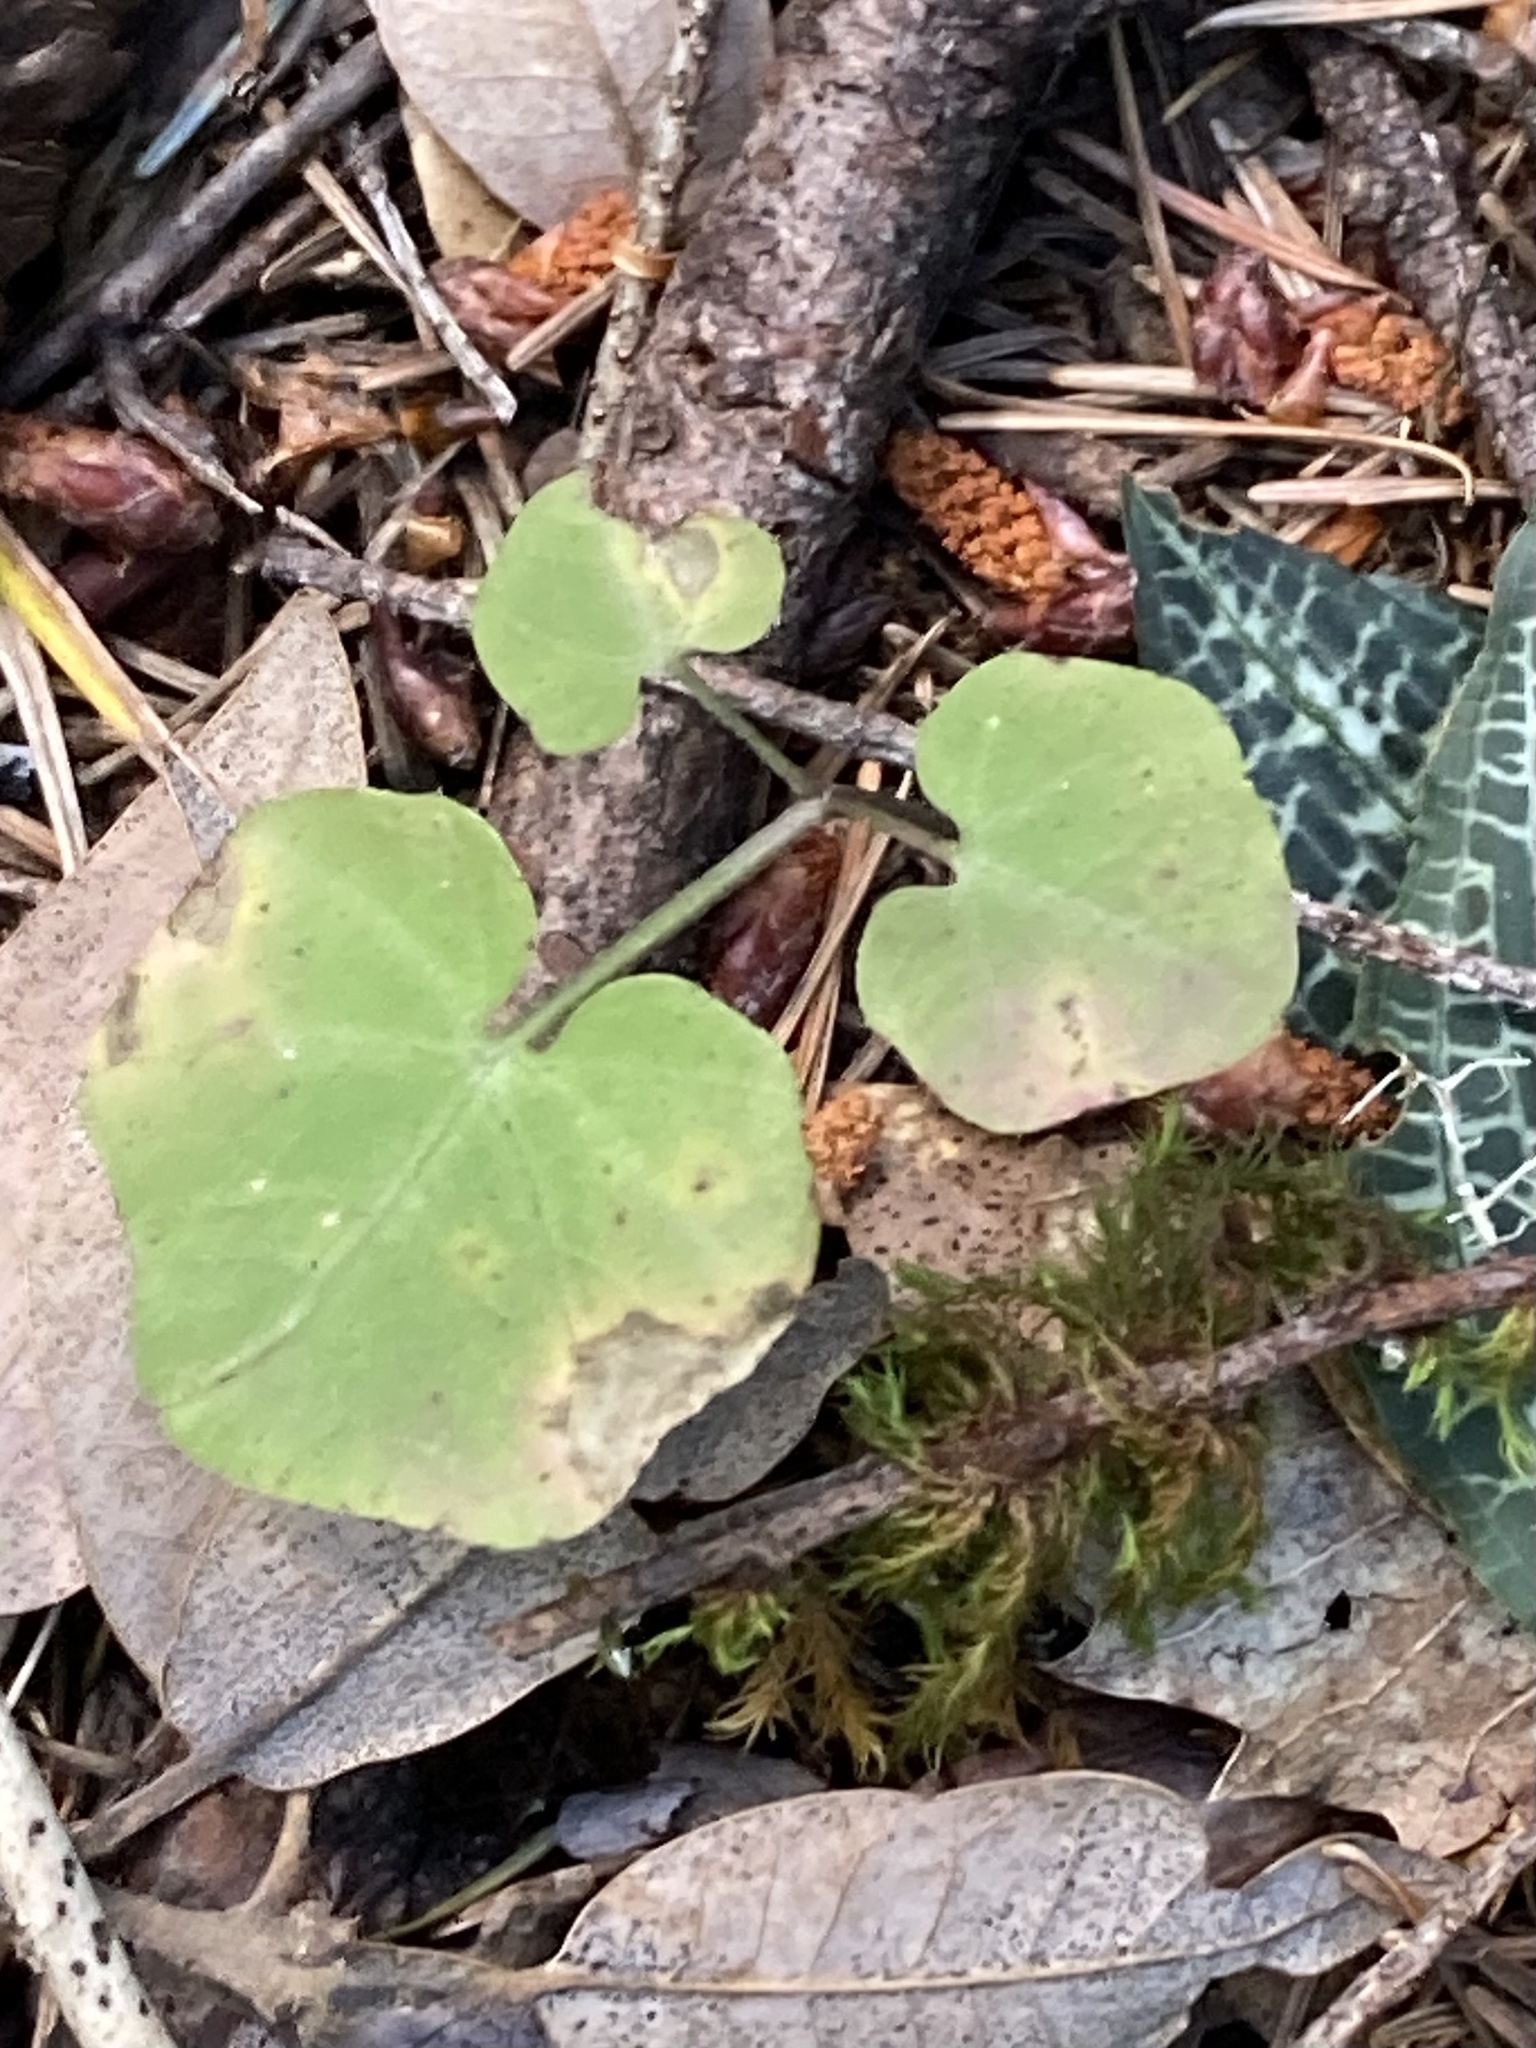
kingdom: Plantae
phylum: Tracheophyta
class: Magnoliopsida
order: Brassicales
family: Brassicaceae
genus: Cardamine
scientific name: Cardamine californica
